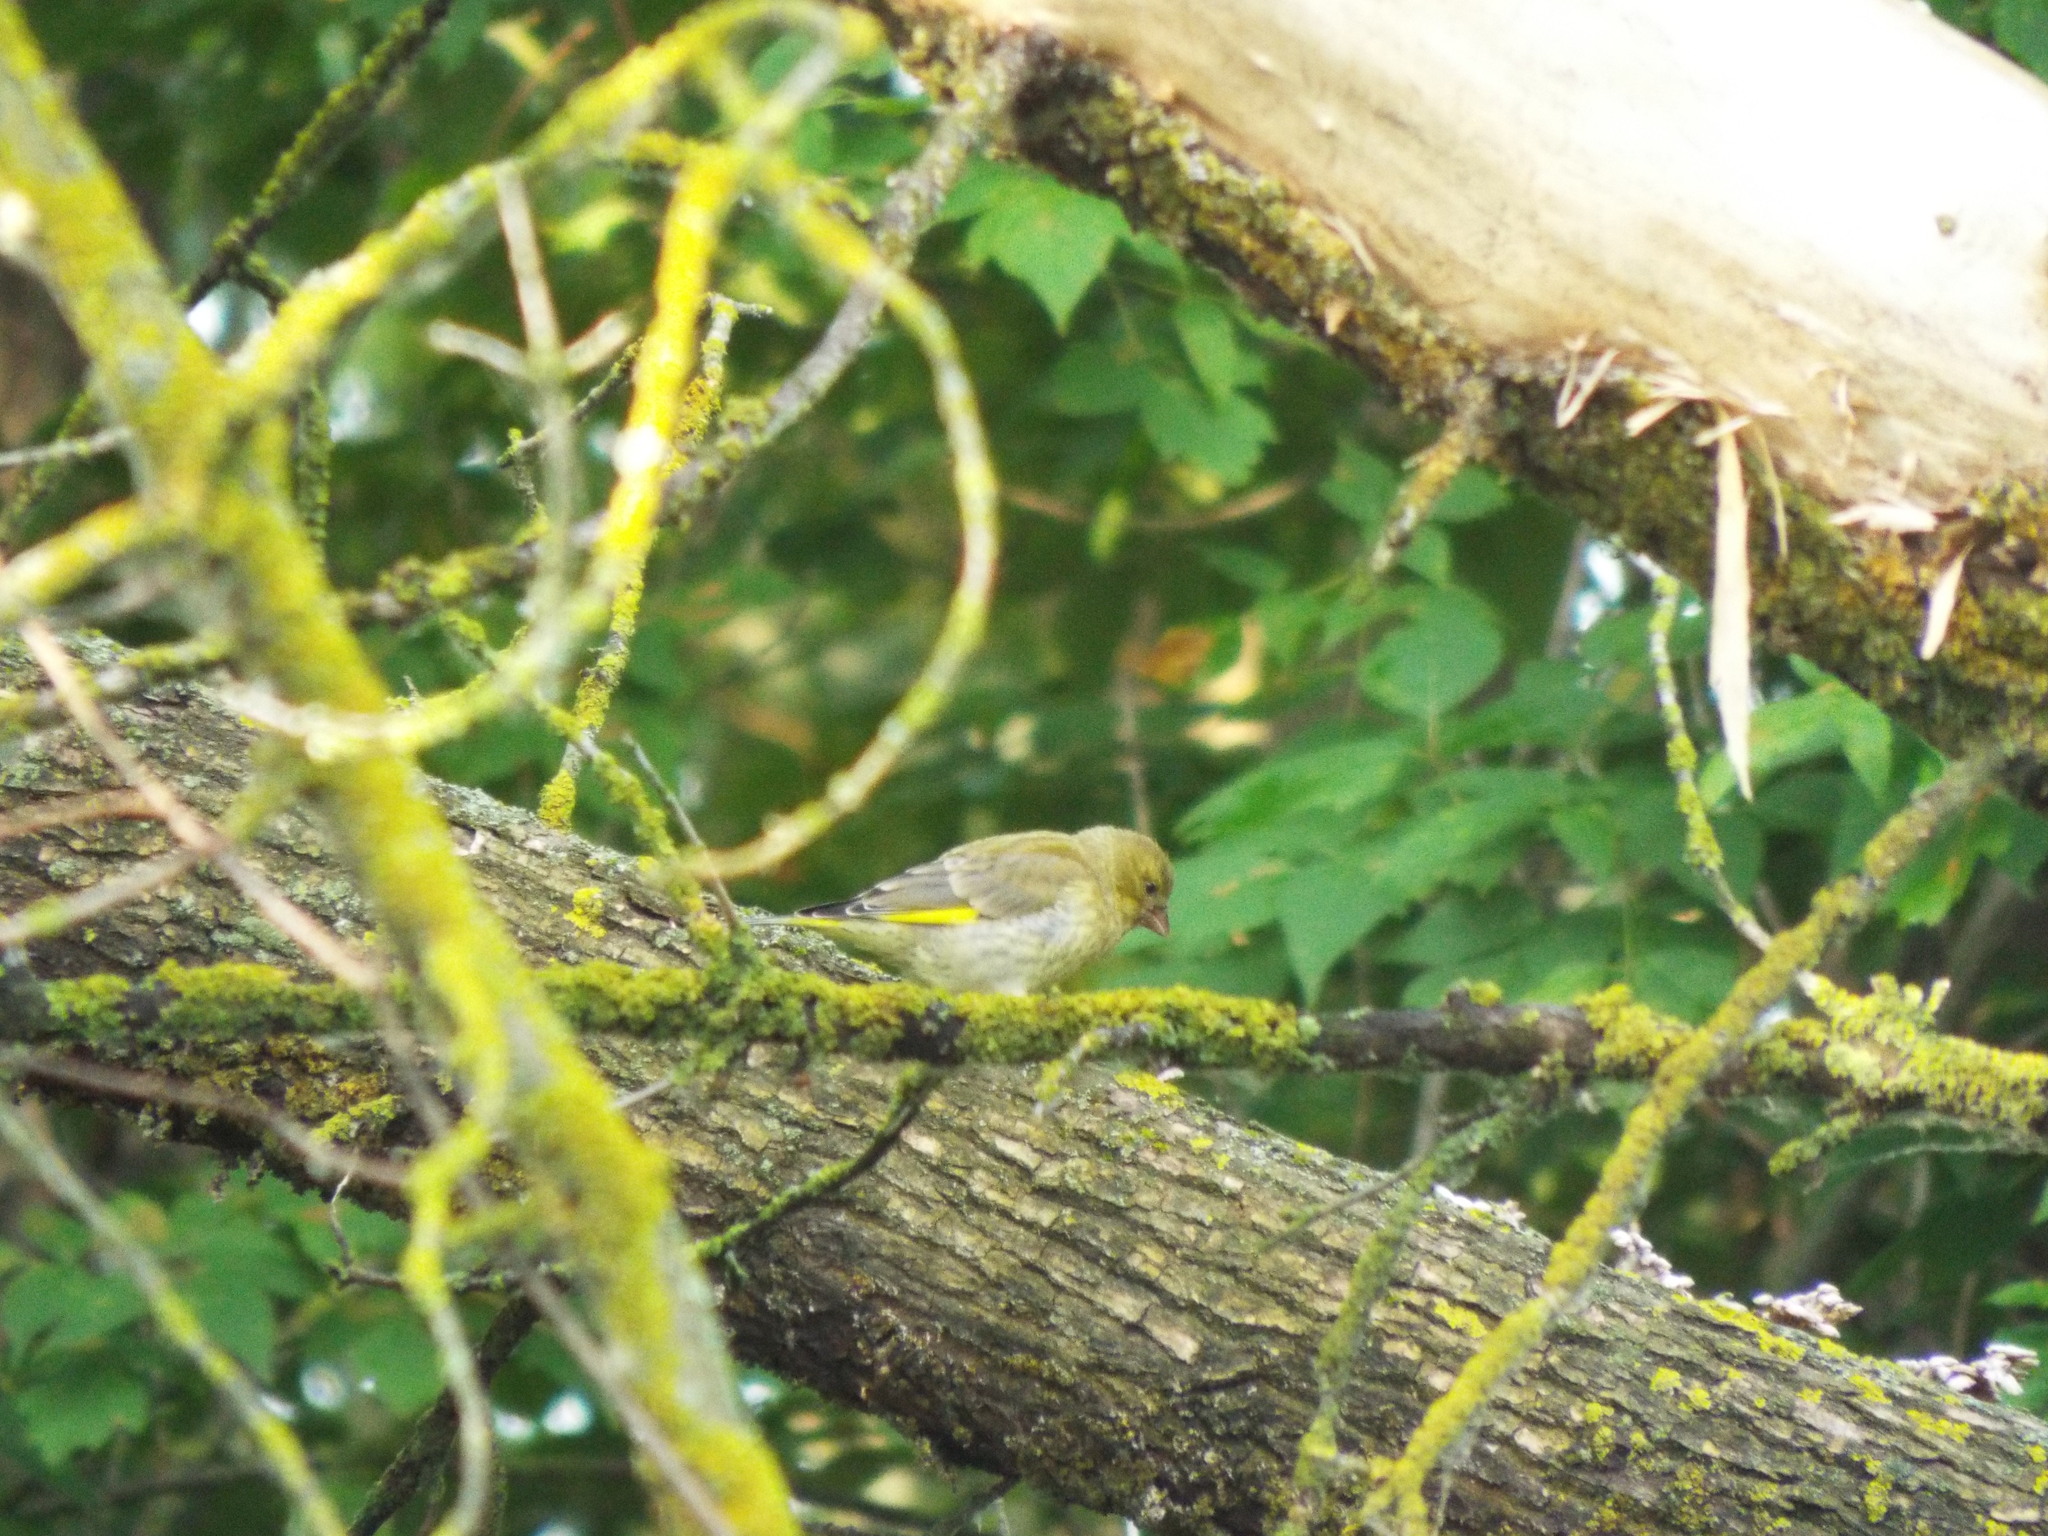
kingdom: Plantae
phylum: Tracheophyta
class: Liliopsida
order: Poales
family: Poaceae
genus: Chloris
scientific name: Chloris chloris
